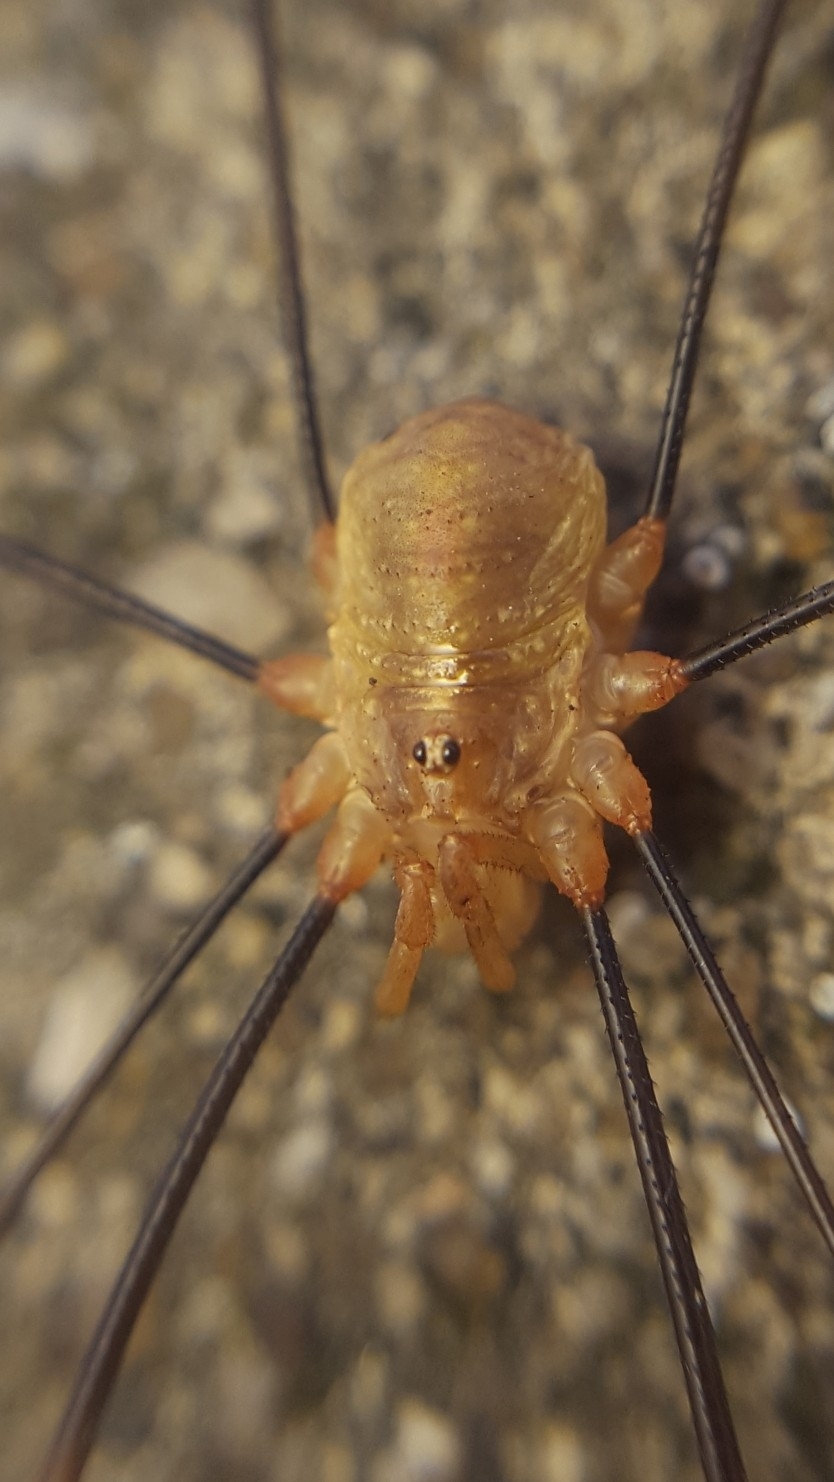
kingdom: Animalia
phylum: Arthropoda
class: Arachnida
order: Opiliones
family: Phalangiidae
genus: Opilio
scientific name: Opilio canestrinii
